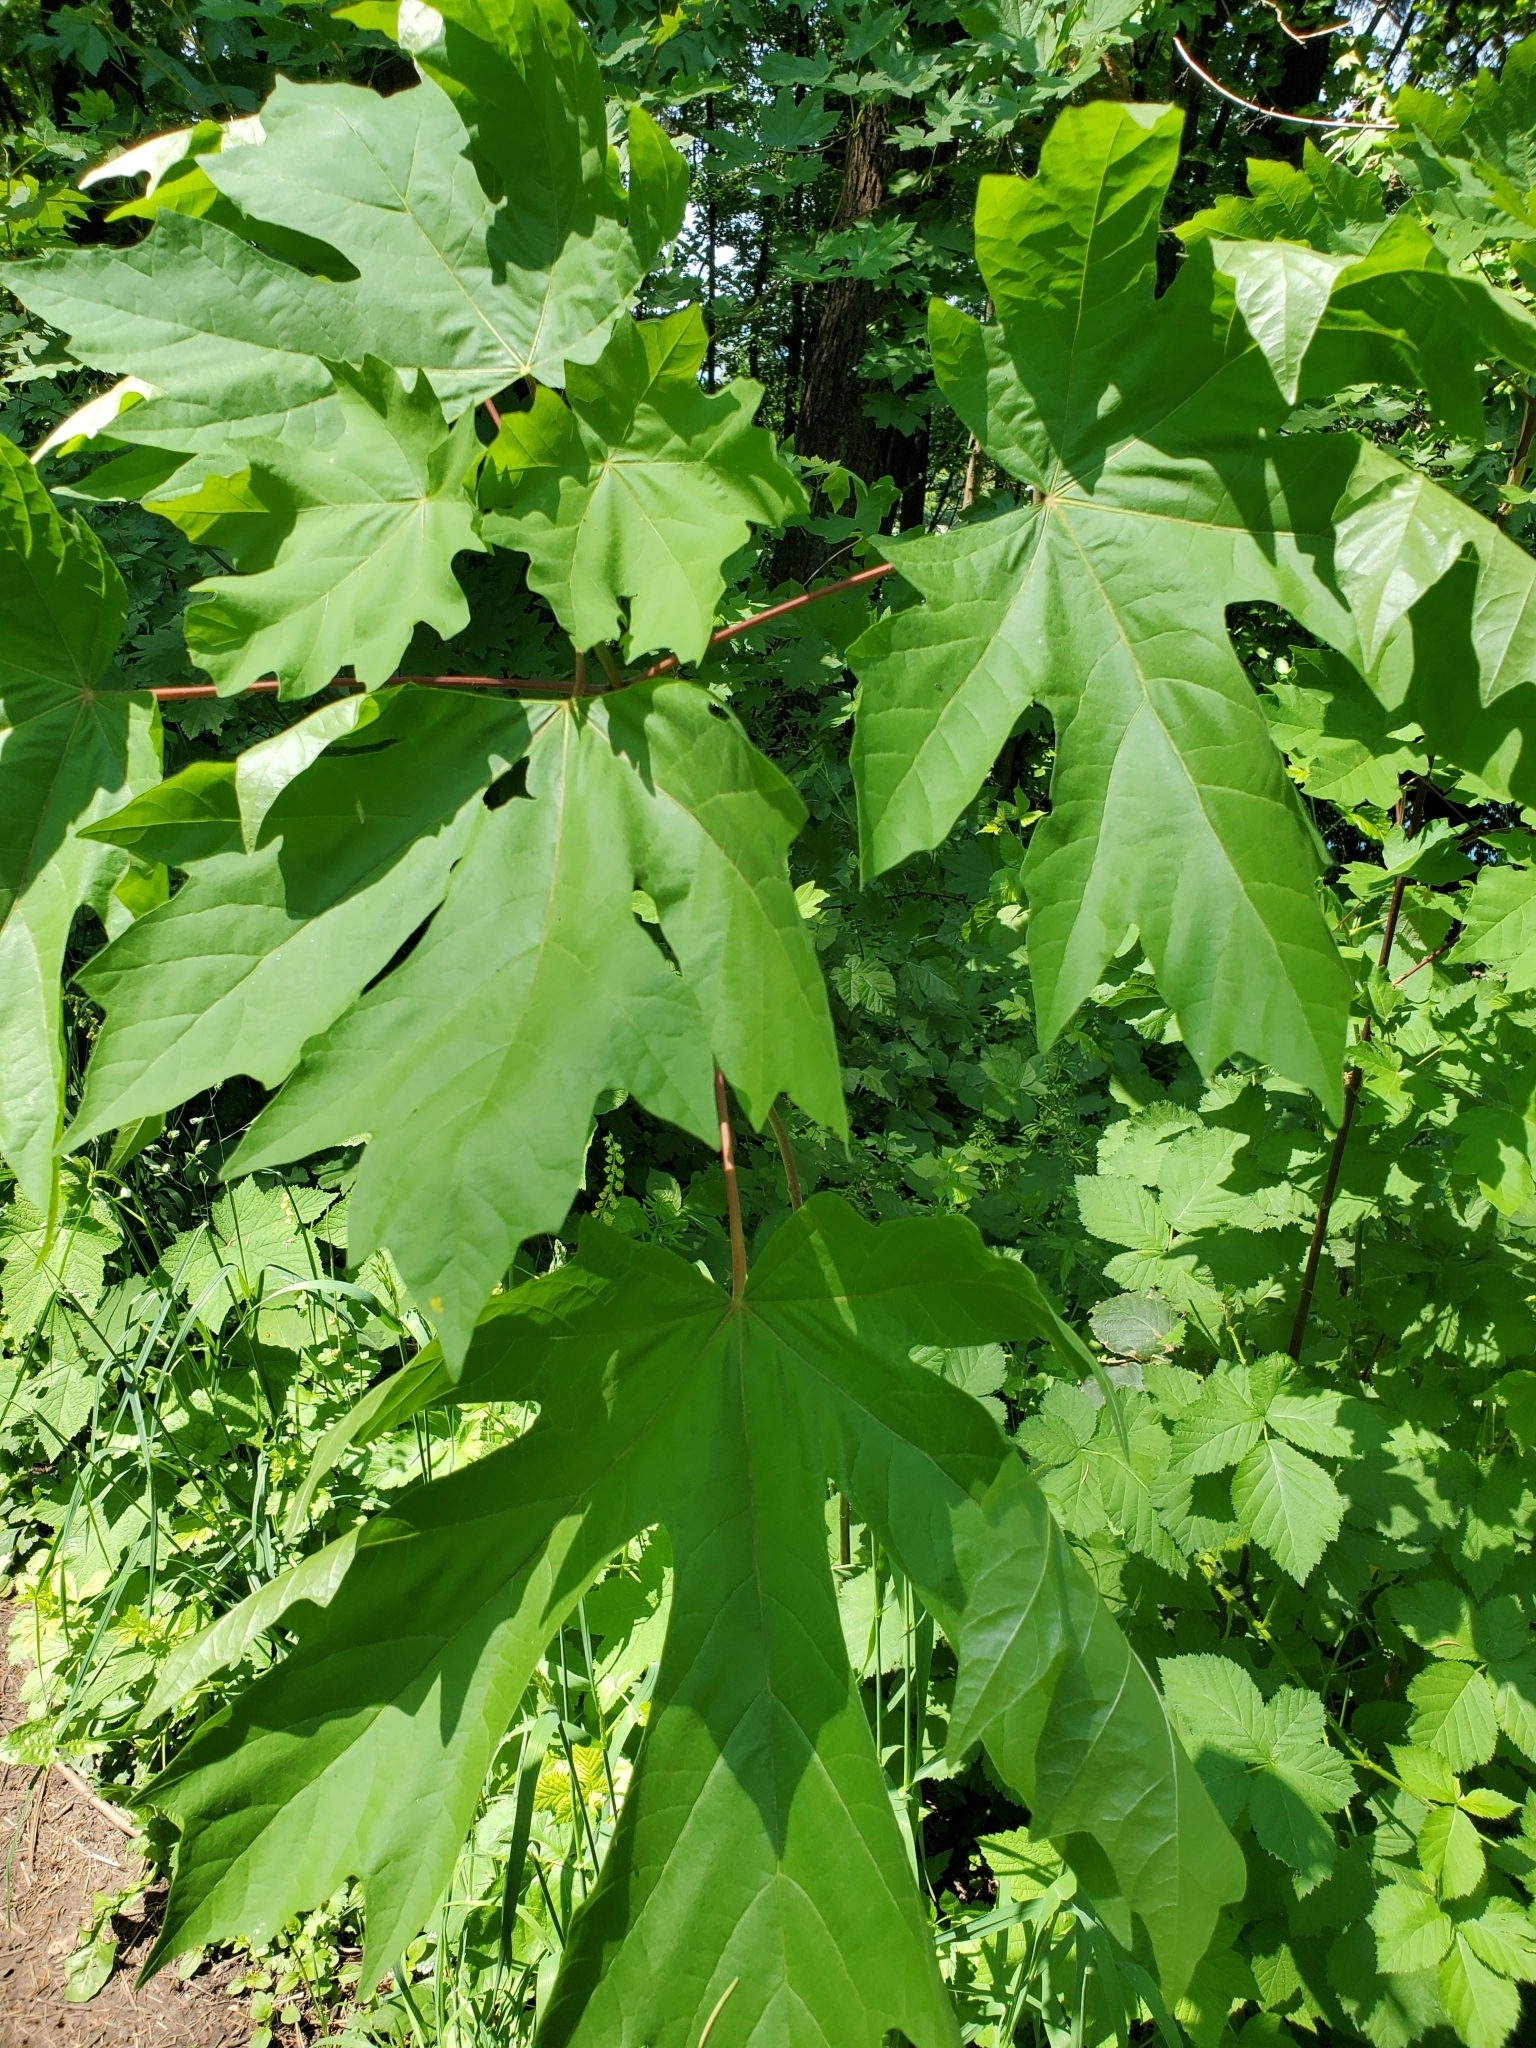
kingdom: Plantae
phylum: Tracheophyta
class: Magnoliopsida
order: Sapindales
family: Sapindaceae
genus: Acer
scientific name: Acer macrophyllum
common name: Oregon maple
